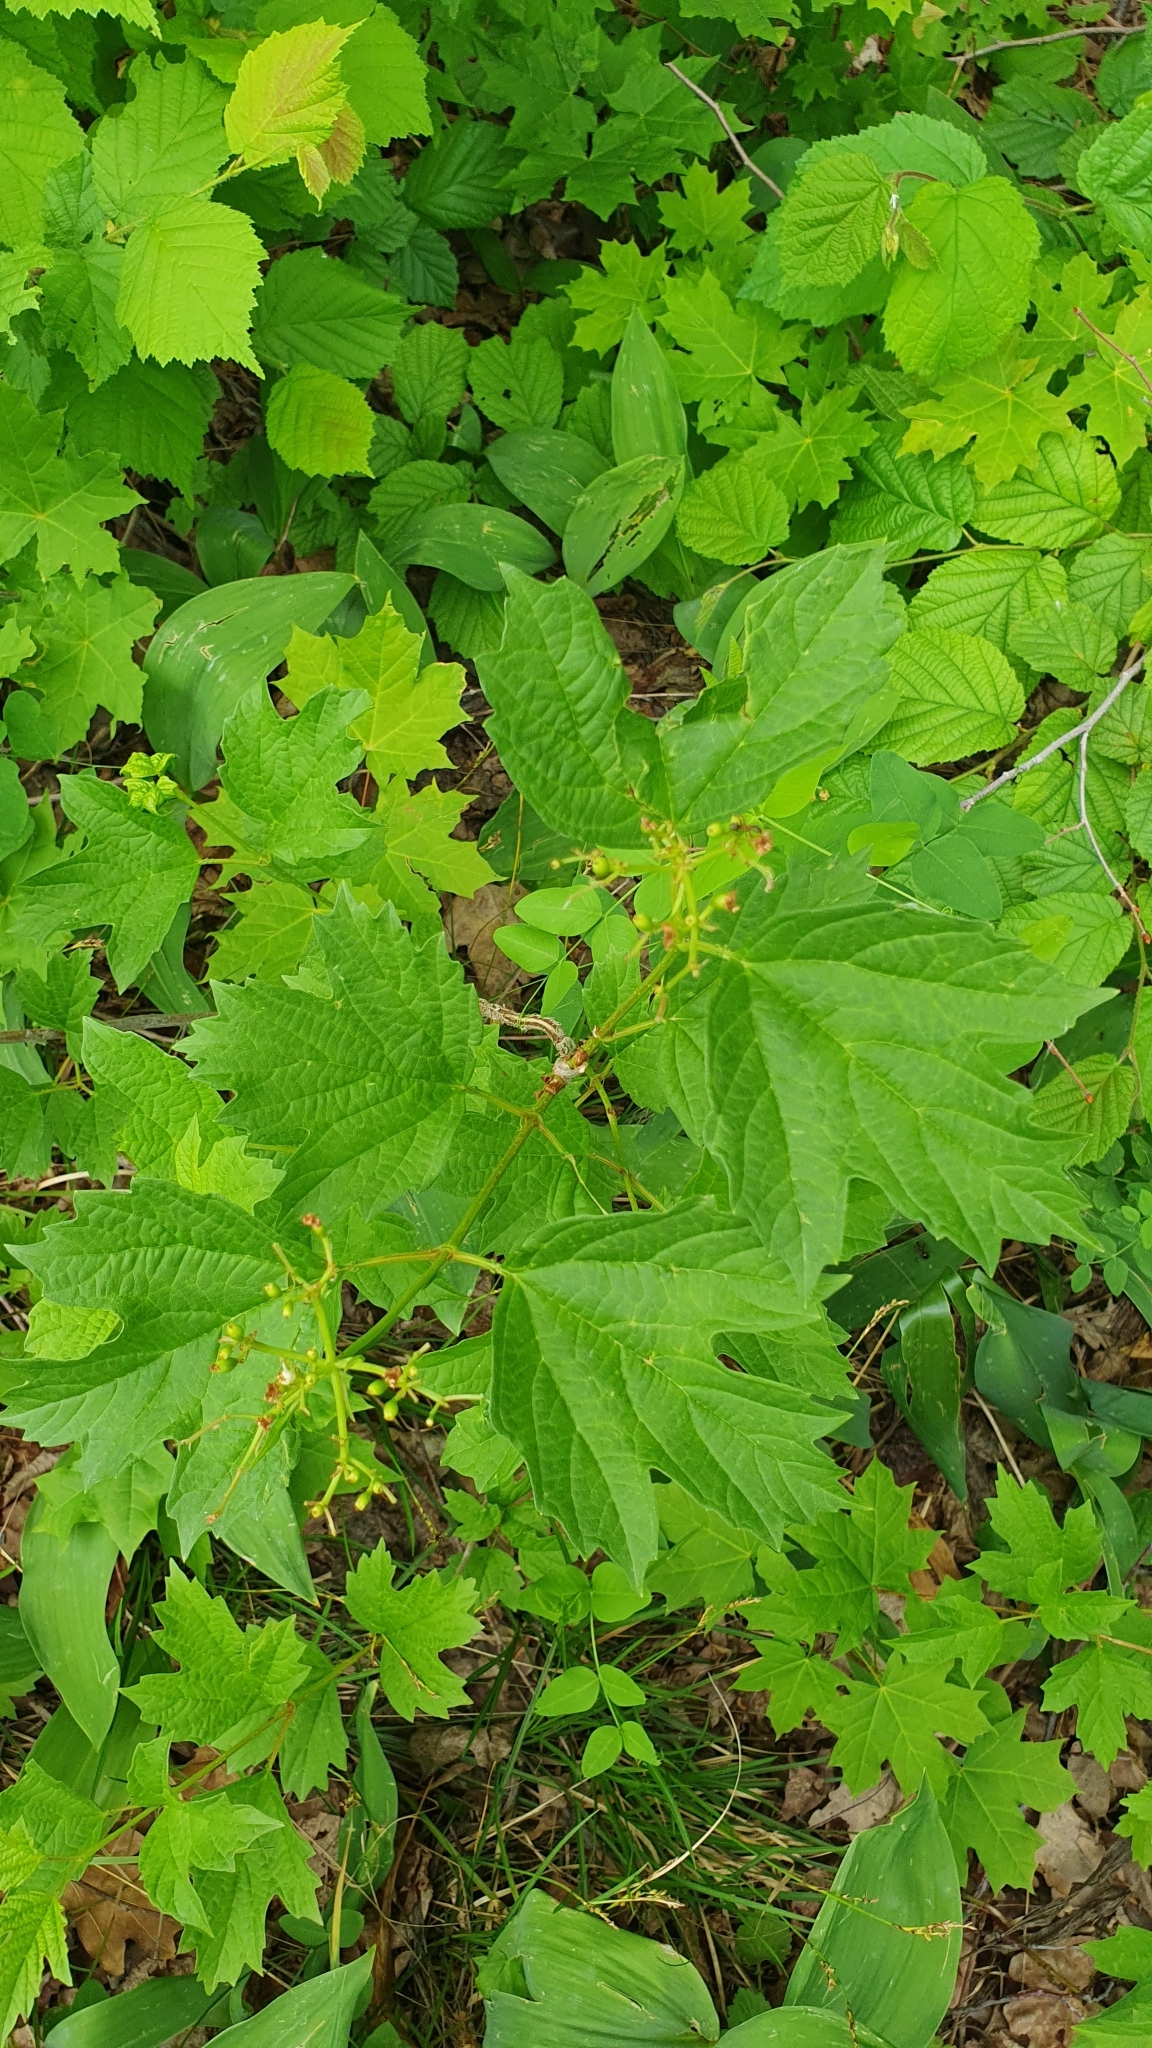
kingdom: Plantae
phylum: Tracheophyta
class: Magnoliopsida
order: Dipsacales
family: Viburnaceae
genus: Viburnum
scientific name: Viburnum opulus
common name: Guelder-rose
